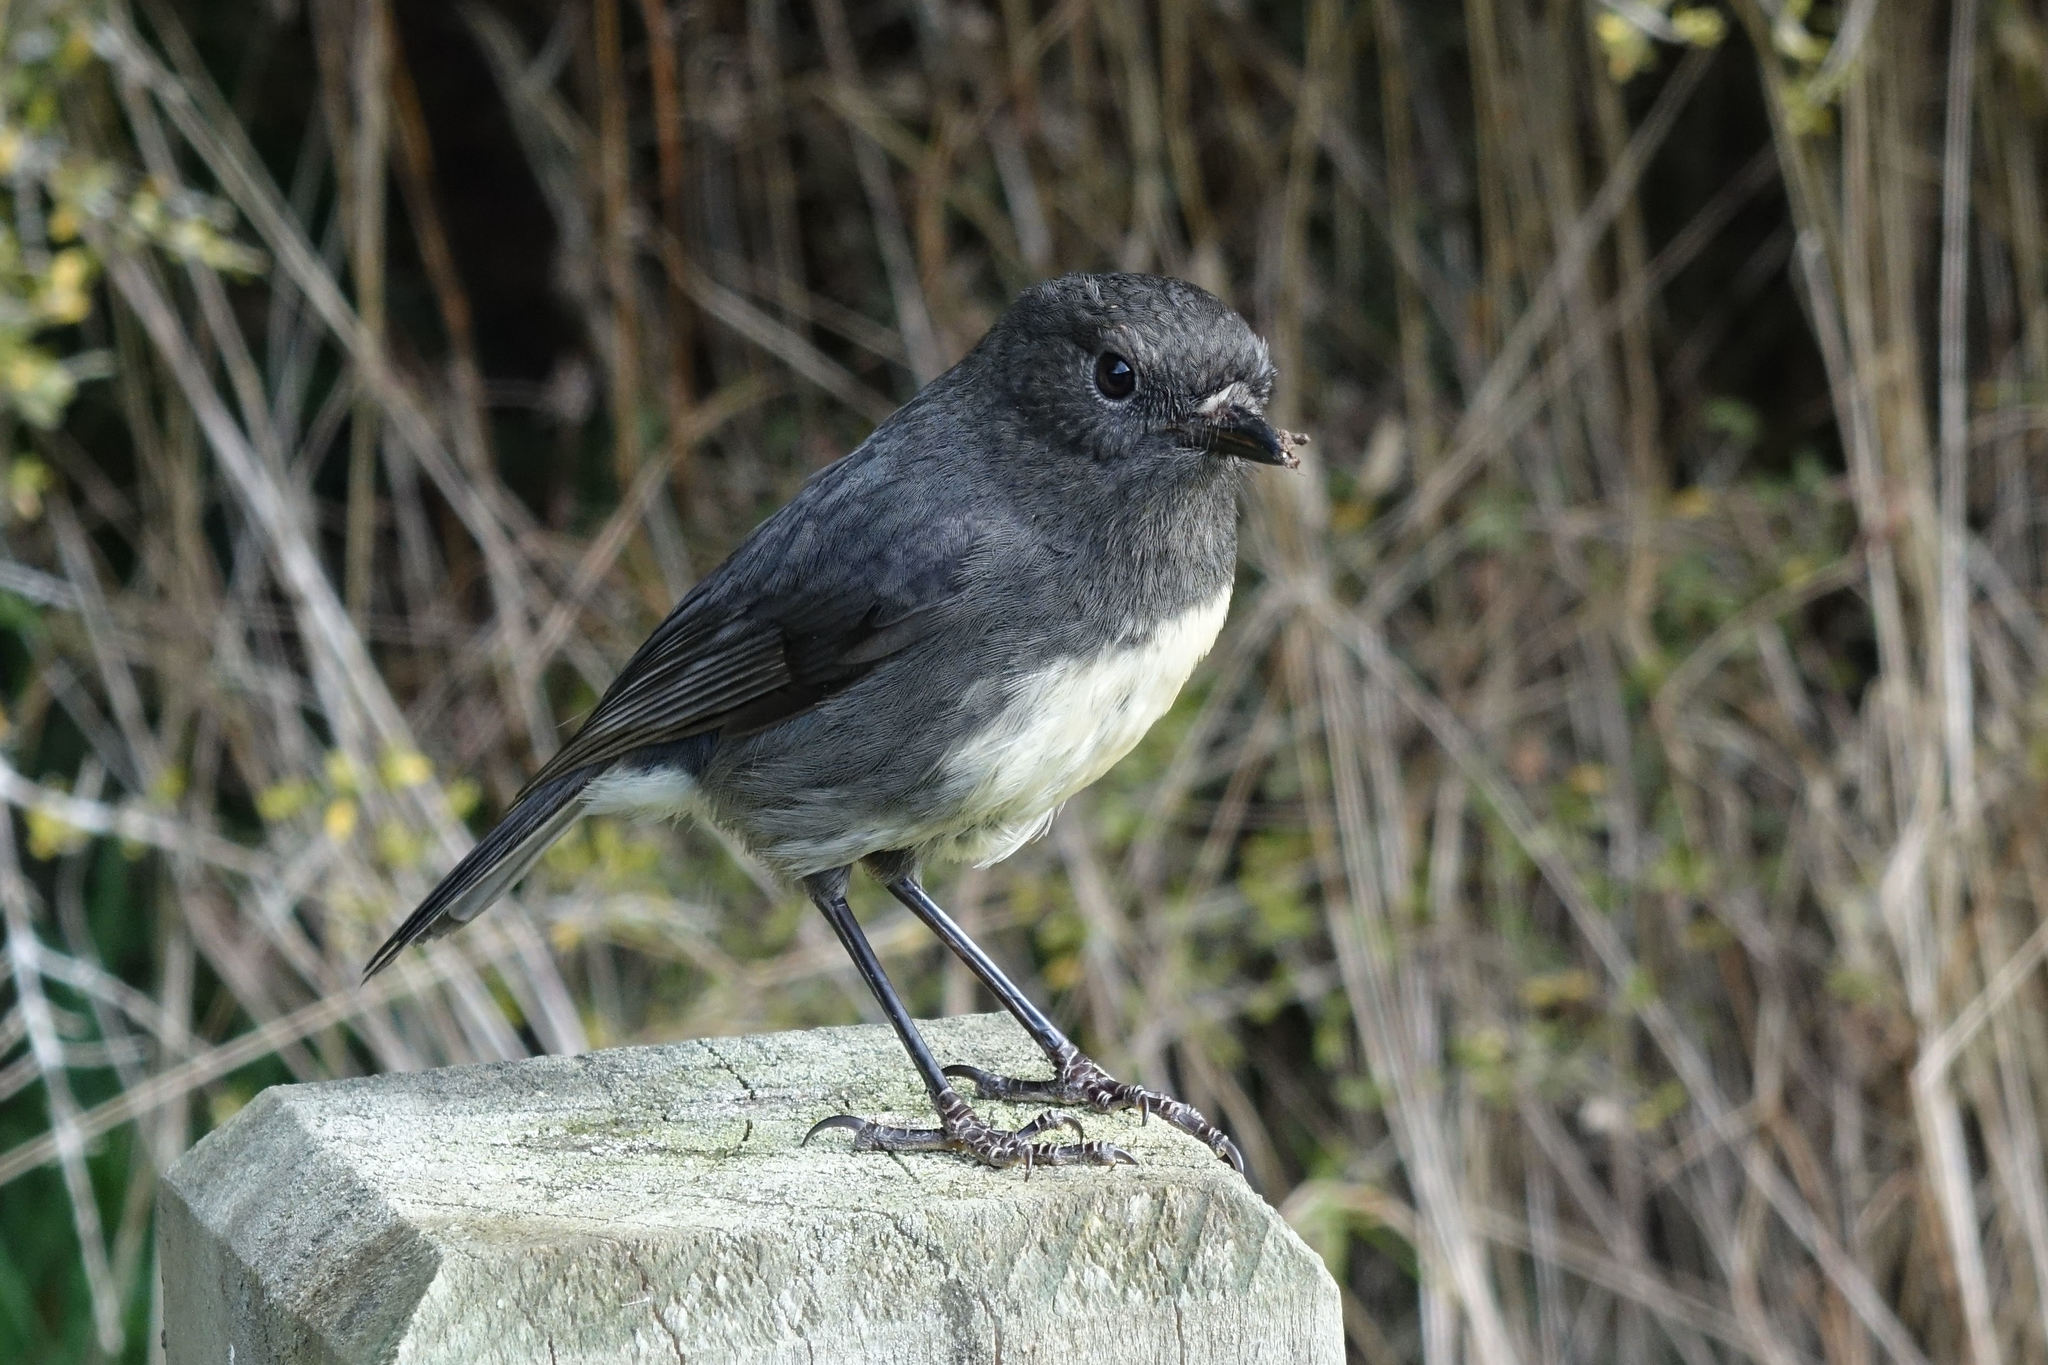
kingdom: Animalia
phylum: Chordata
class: Aves
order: Passeriformes
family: Petroicidae
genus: Petroica
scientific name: Petroica australis
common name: New zealand robin
